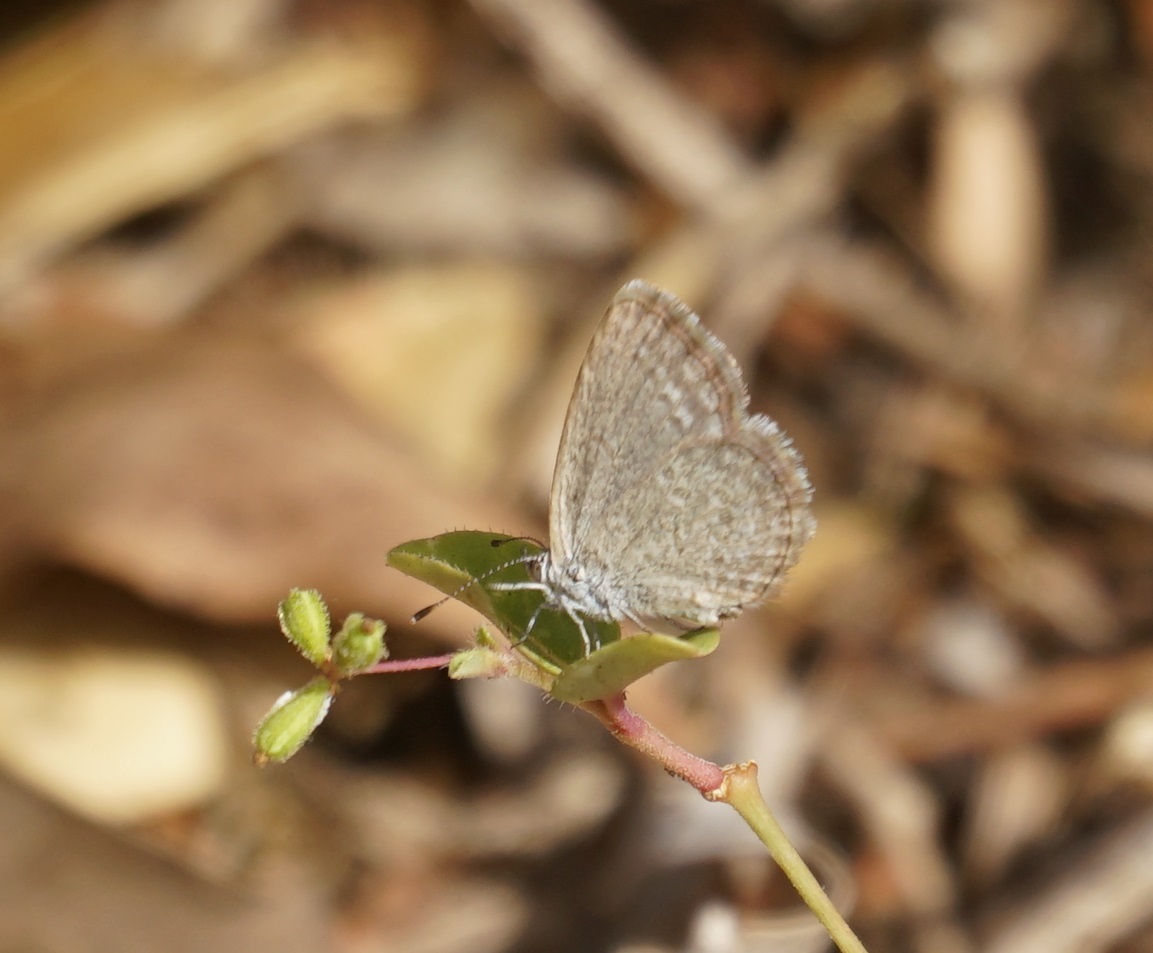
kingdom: Animalia
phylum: Arthropoda
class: Insecta
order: Lepidoptera
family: Lycaenidae
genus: Zizina
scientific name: Zizina labradus
